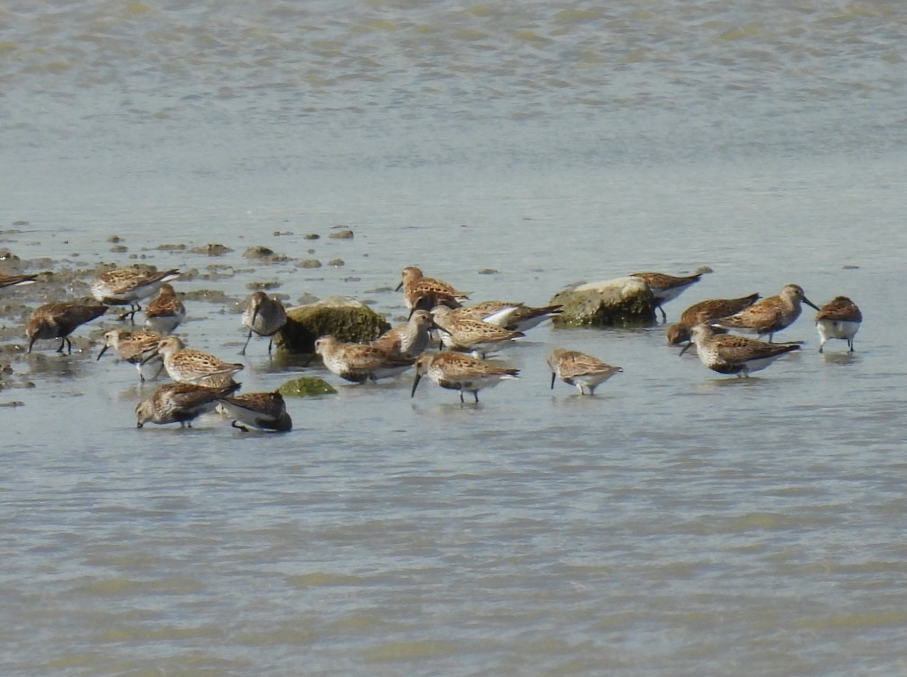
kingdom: Animalia
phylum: Chordata
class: Aves
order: Charadriiformes
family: Scolopacidae
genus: Calidris
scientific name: Calidris alpina
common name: Dunlin
